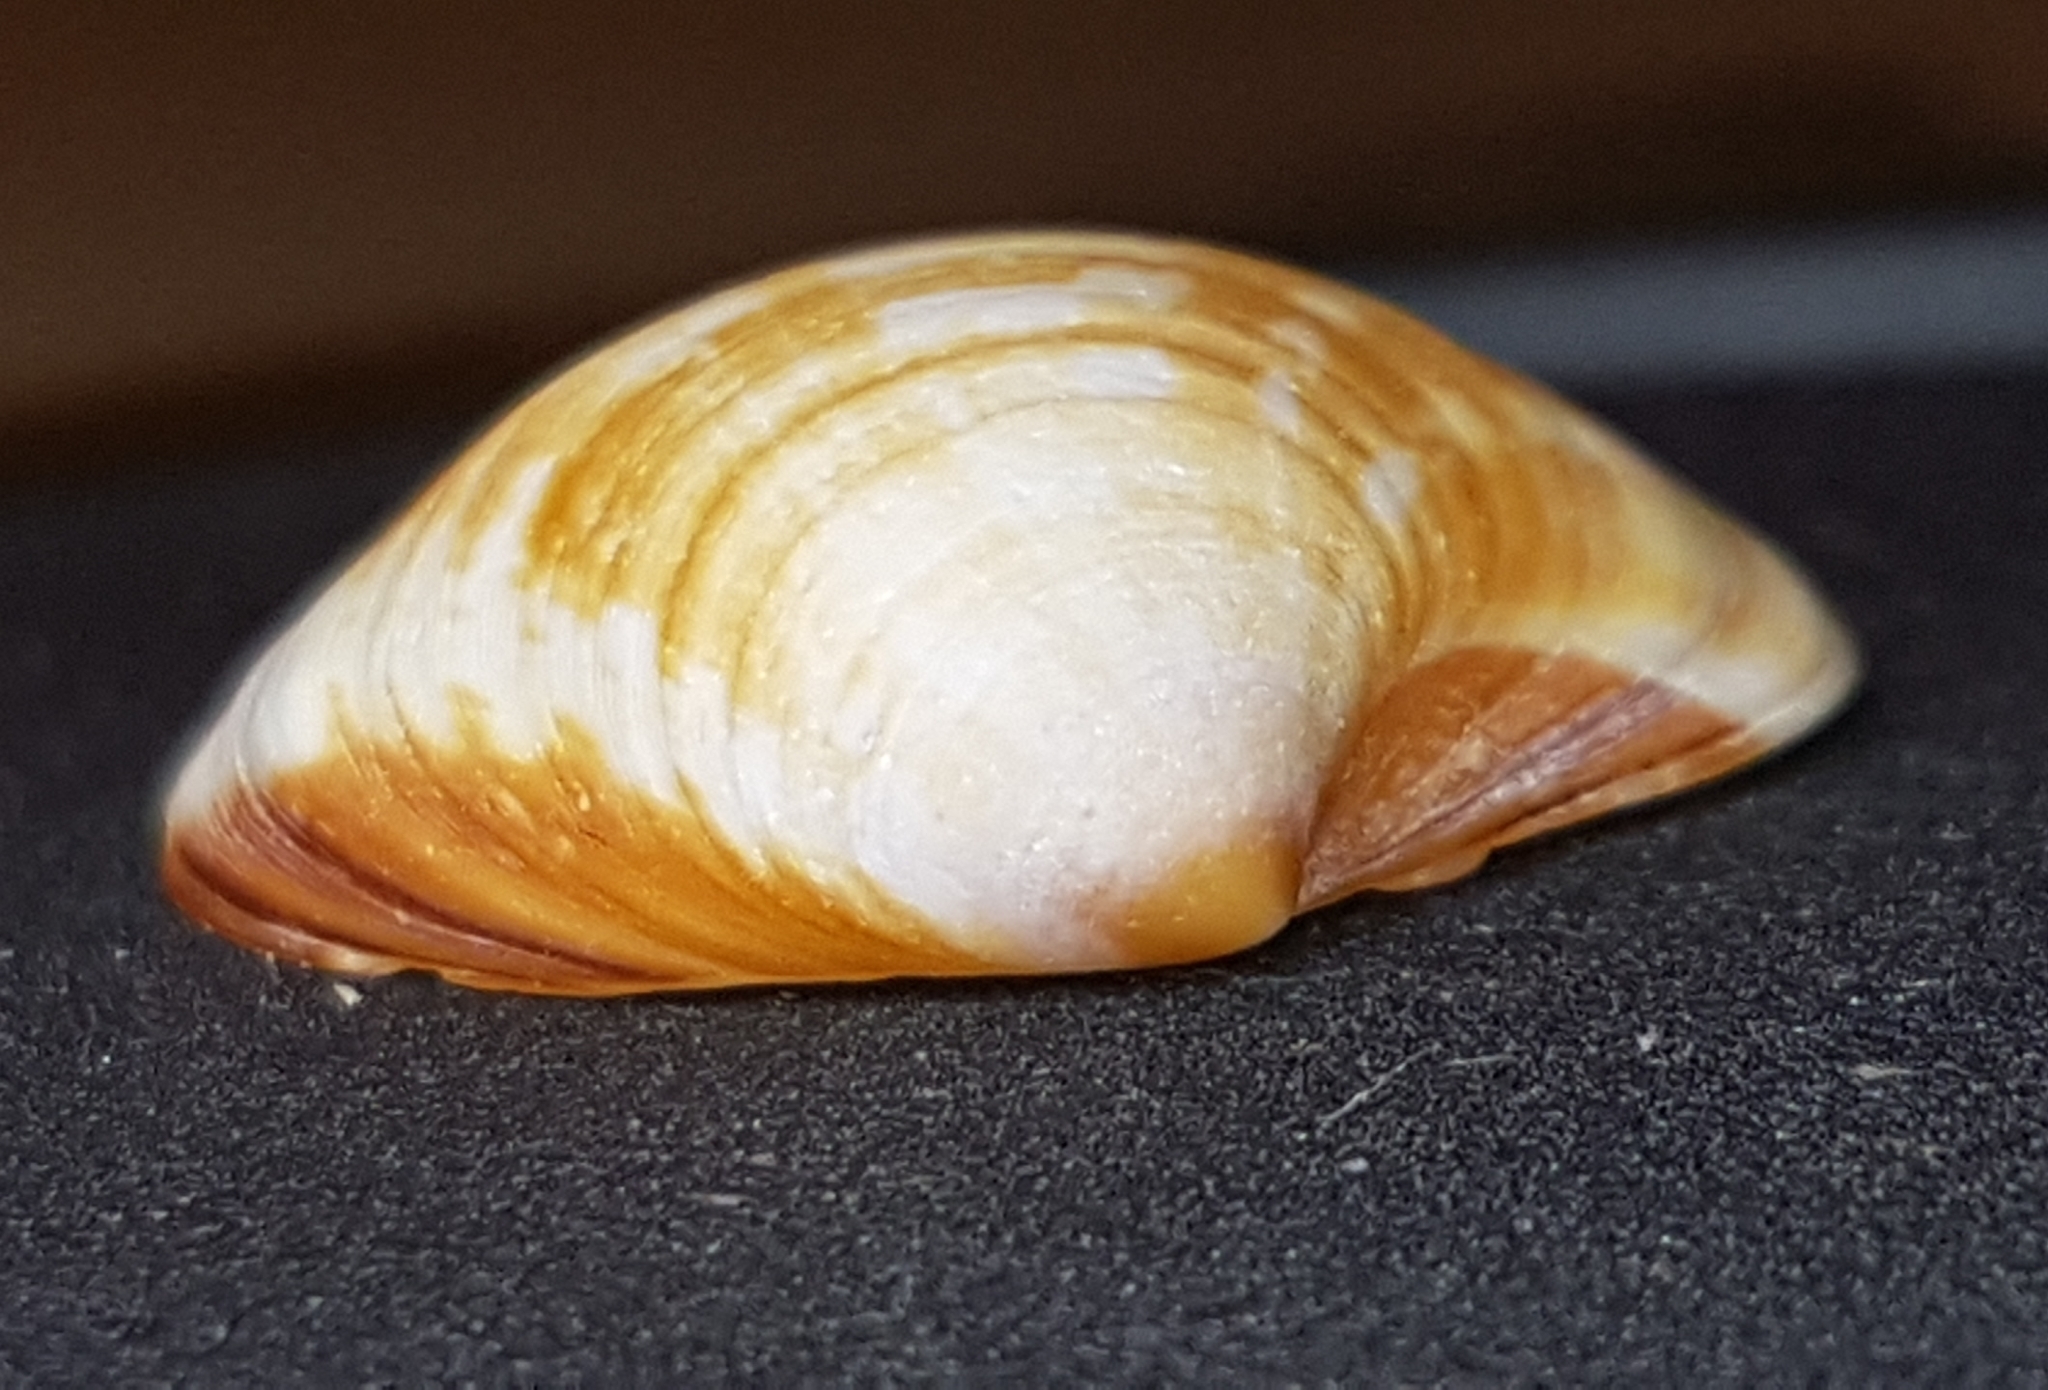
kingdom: Animalia
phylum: Mollusca
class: Bivalvia
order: Venerida
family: Veneridae
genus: Pitar
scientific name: Pitar rudis
